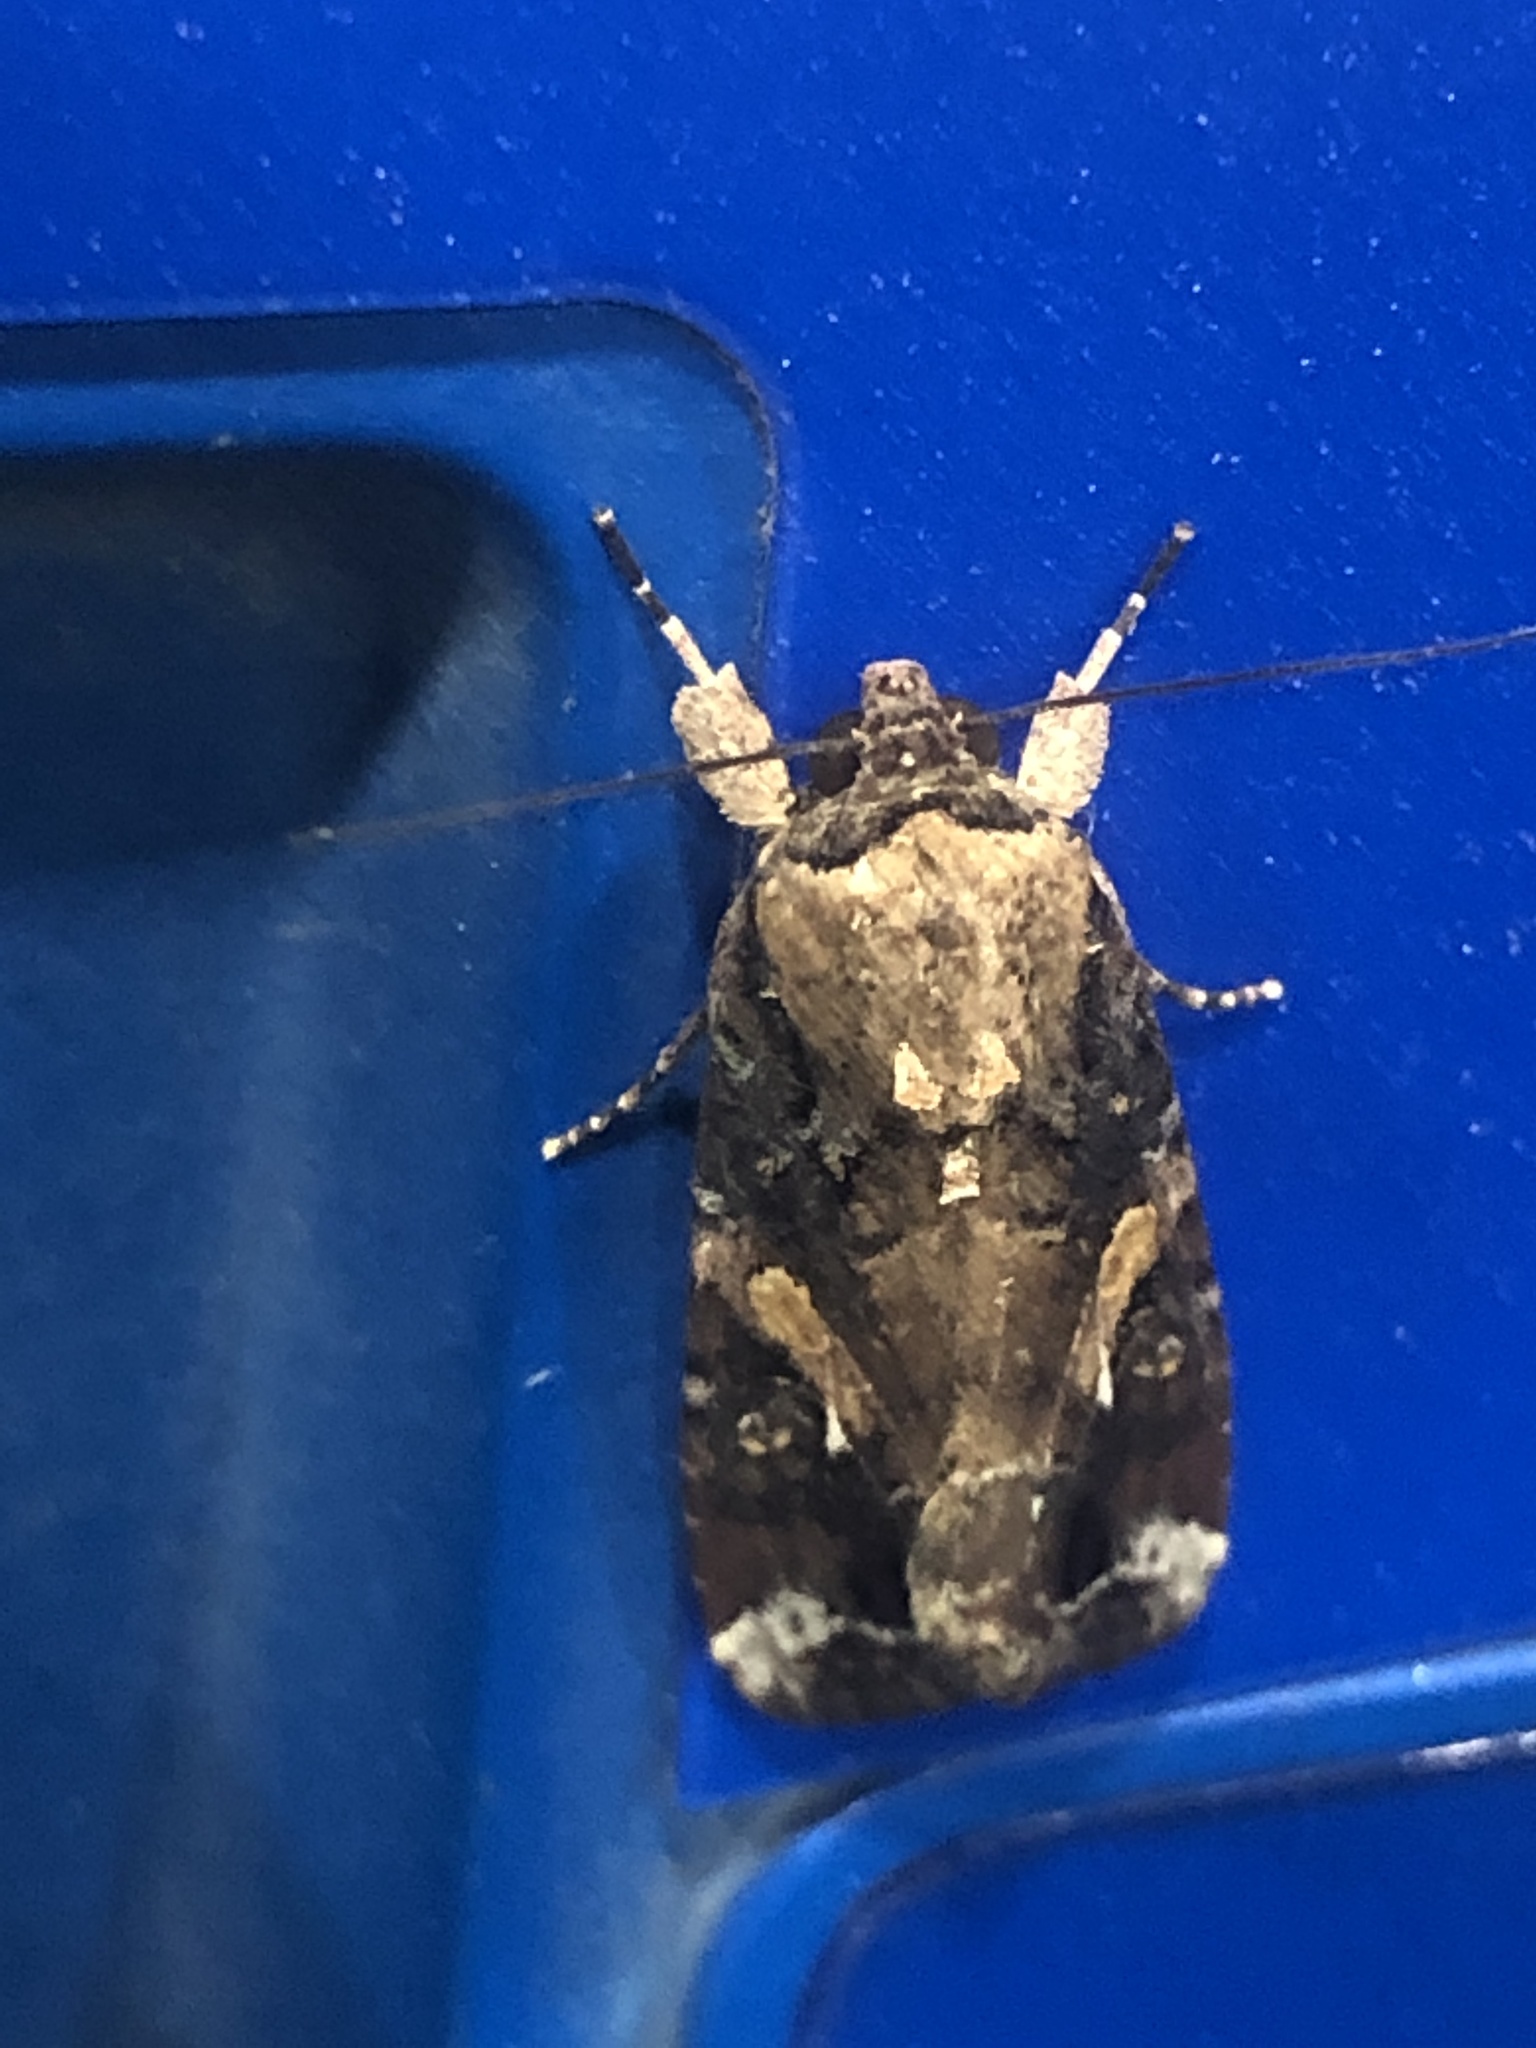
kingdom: Animalia
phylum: Arthropoda
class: Insecta
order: Lepidoptera
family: Noctuidae
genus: Spodoptera
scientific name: Spodoptera frugiperda
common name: Fall armyworm
